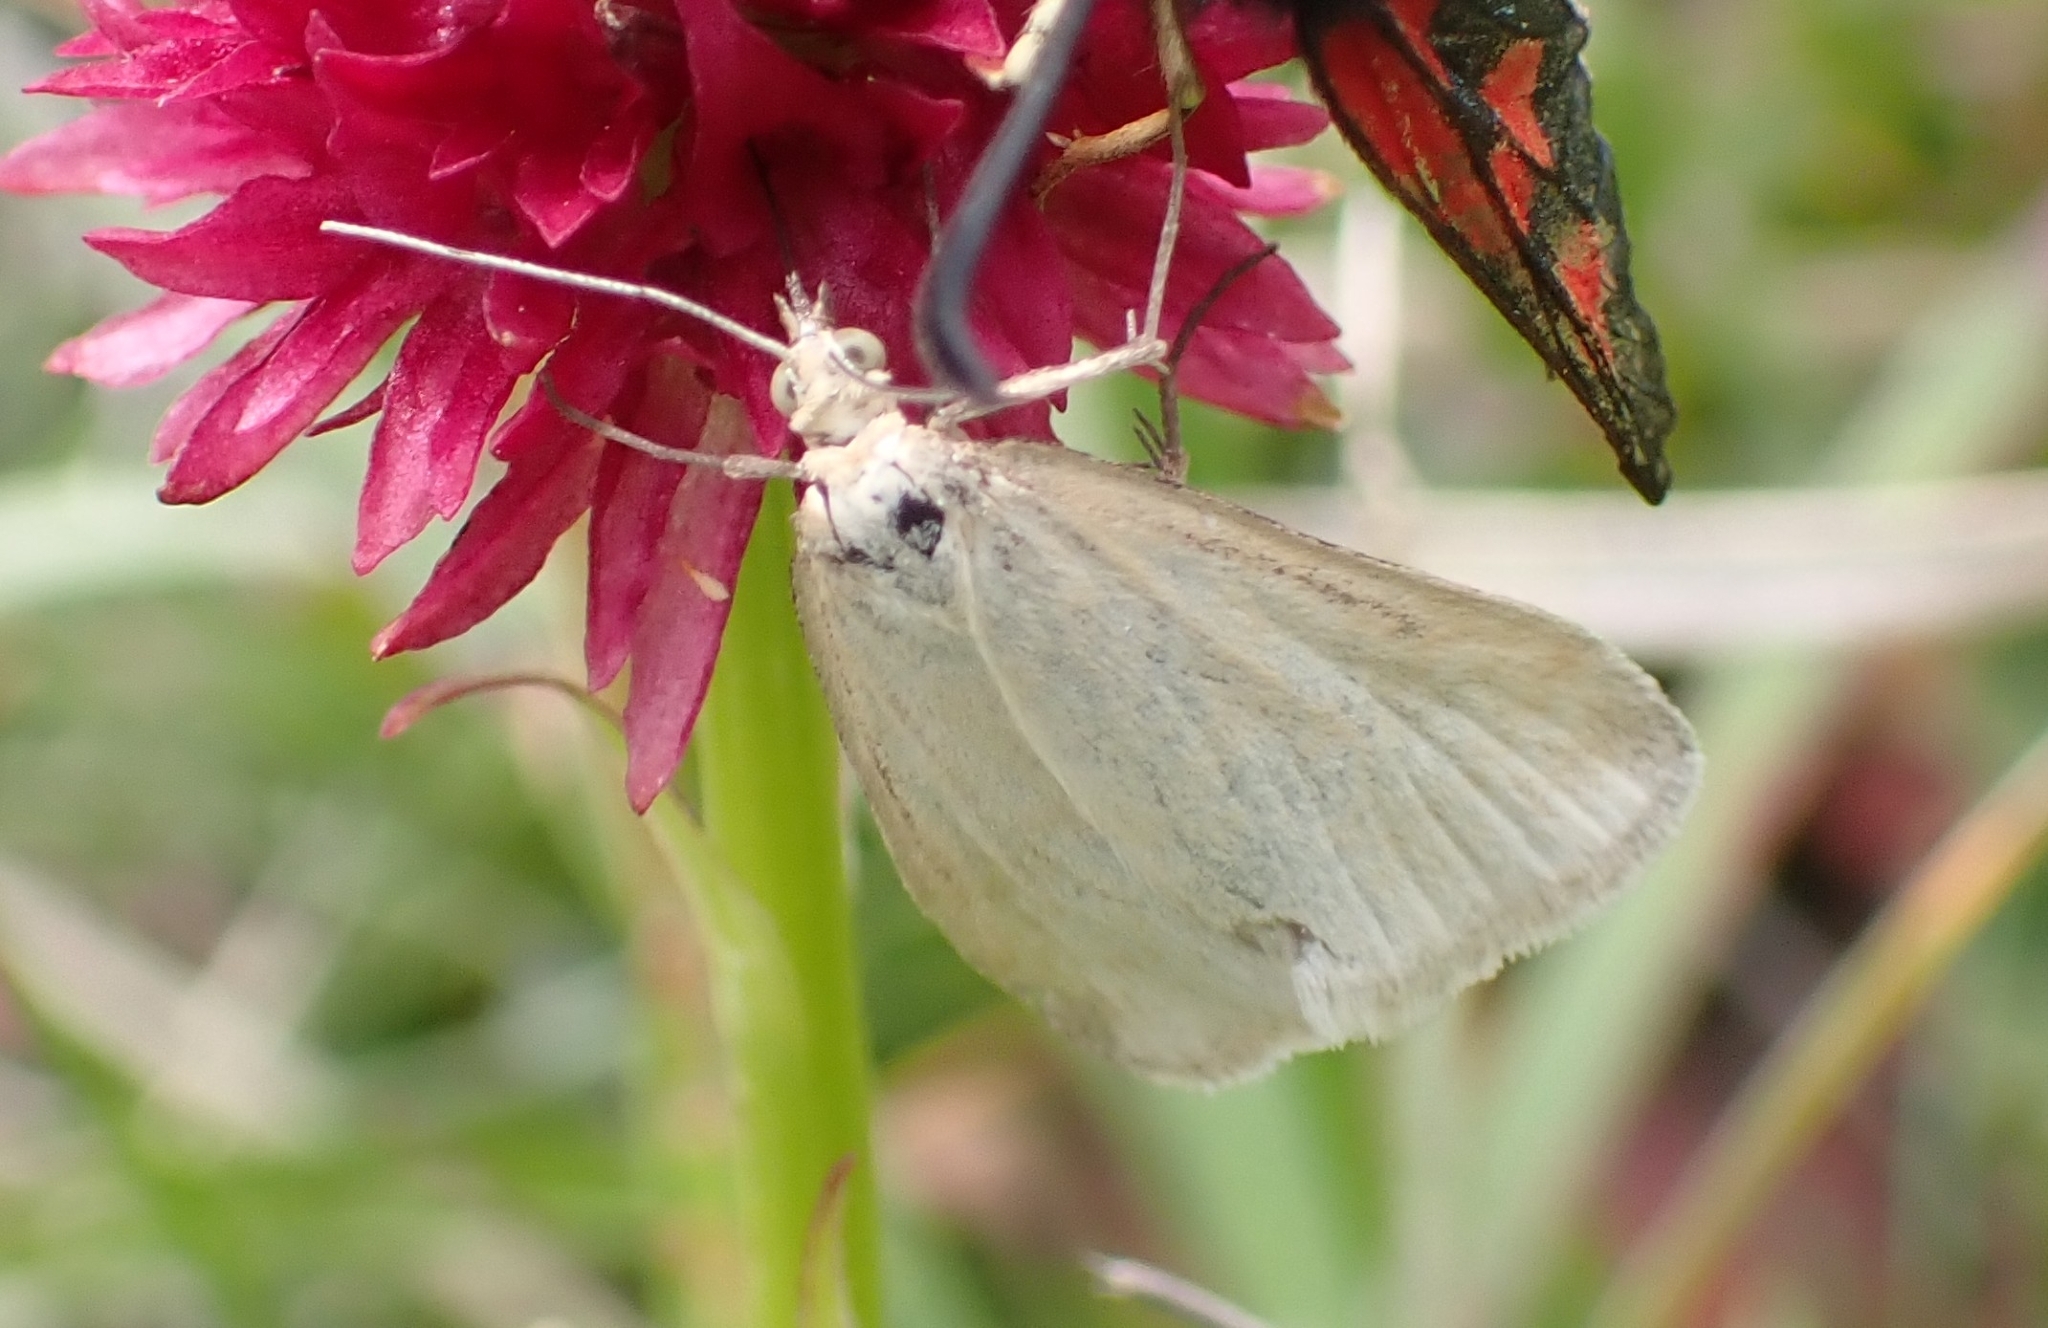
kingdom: Animalia
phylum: Arthropoda
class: Insecta
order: Lepidoptera
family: Crambidae
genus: Udea
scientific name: Udea lutealis
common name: Pale straw pearl
